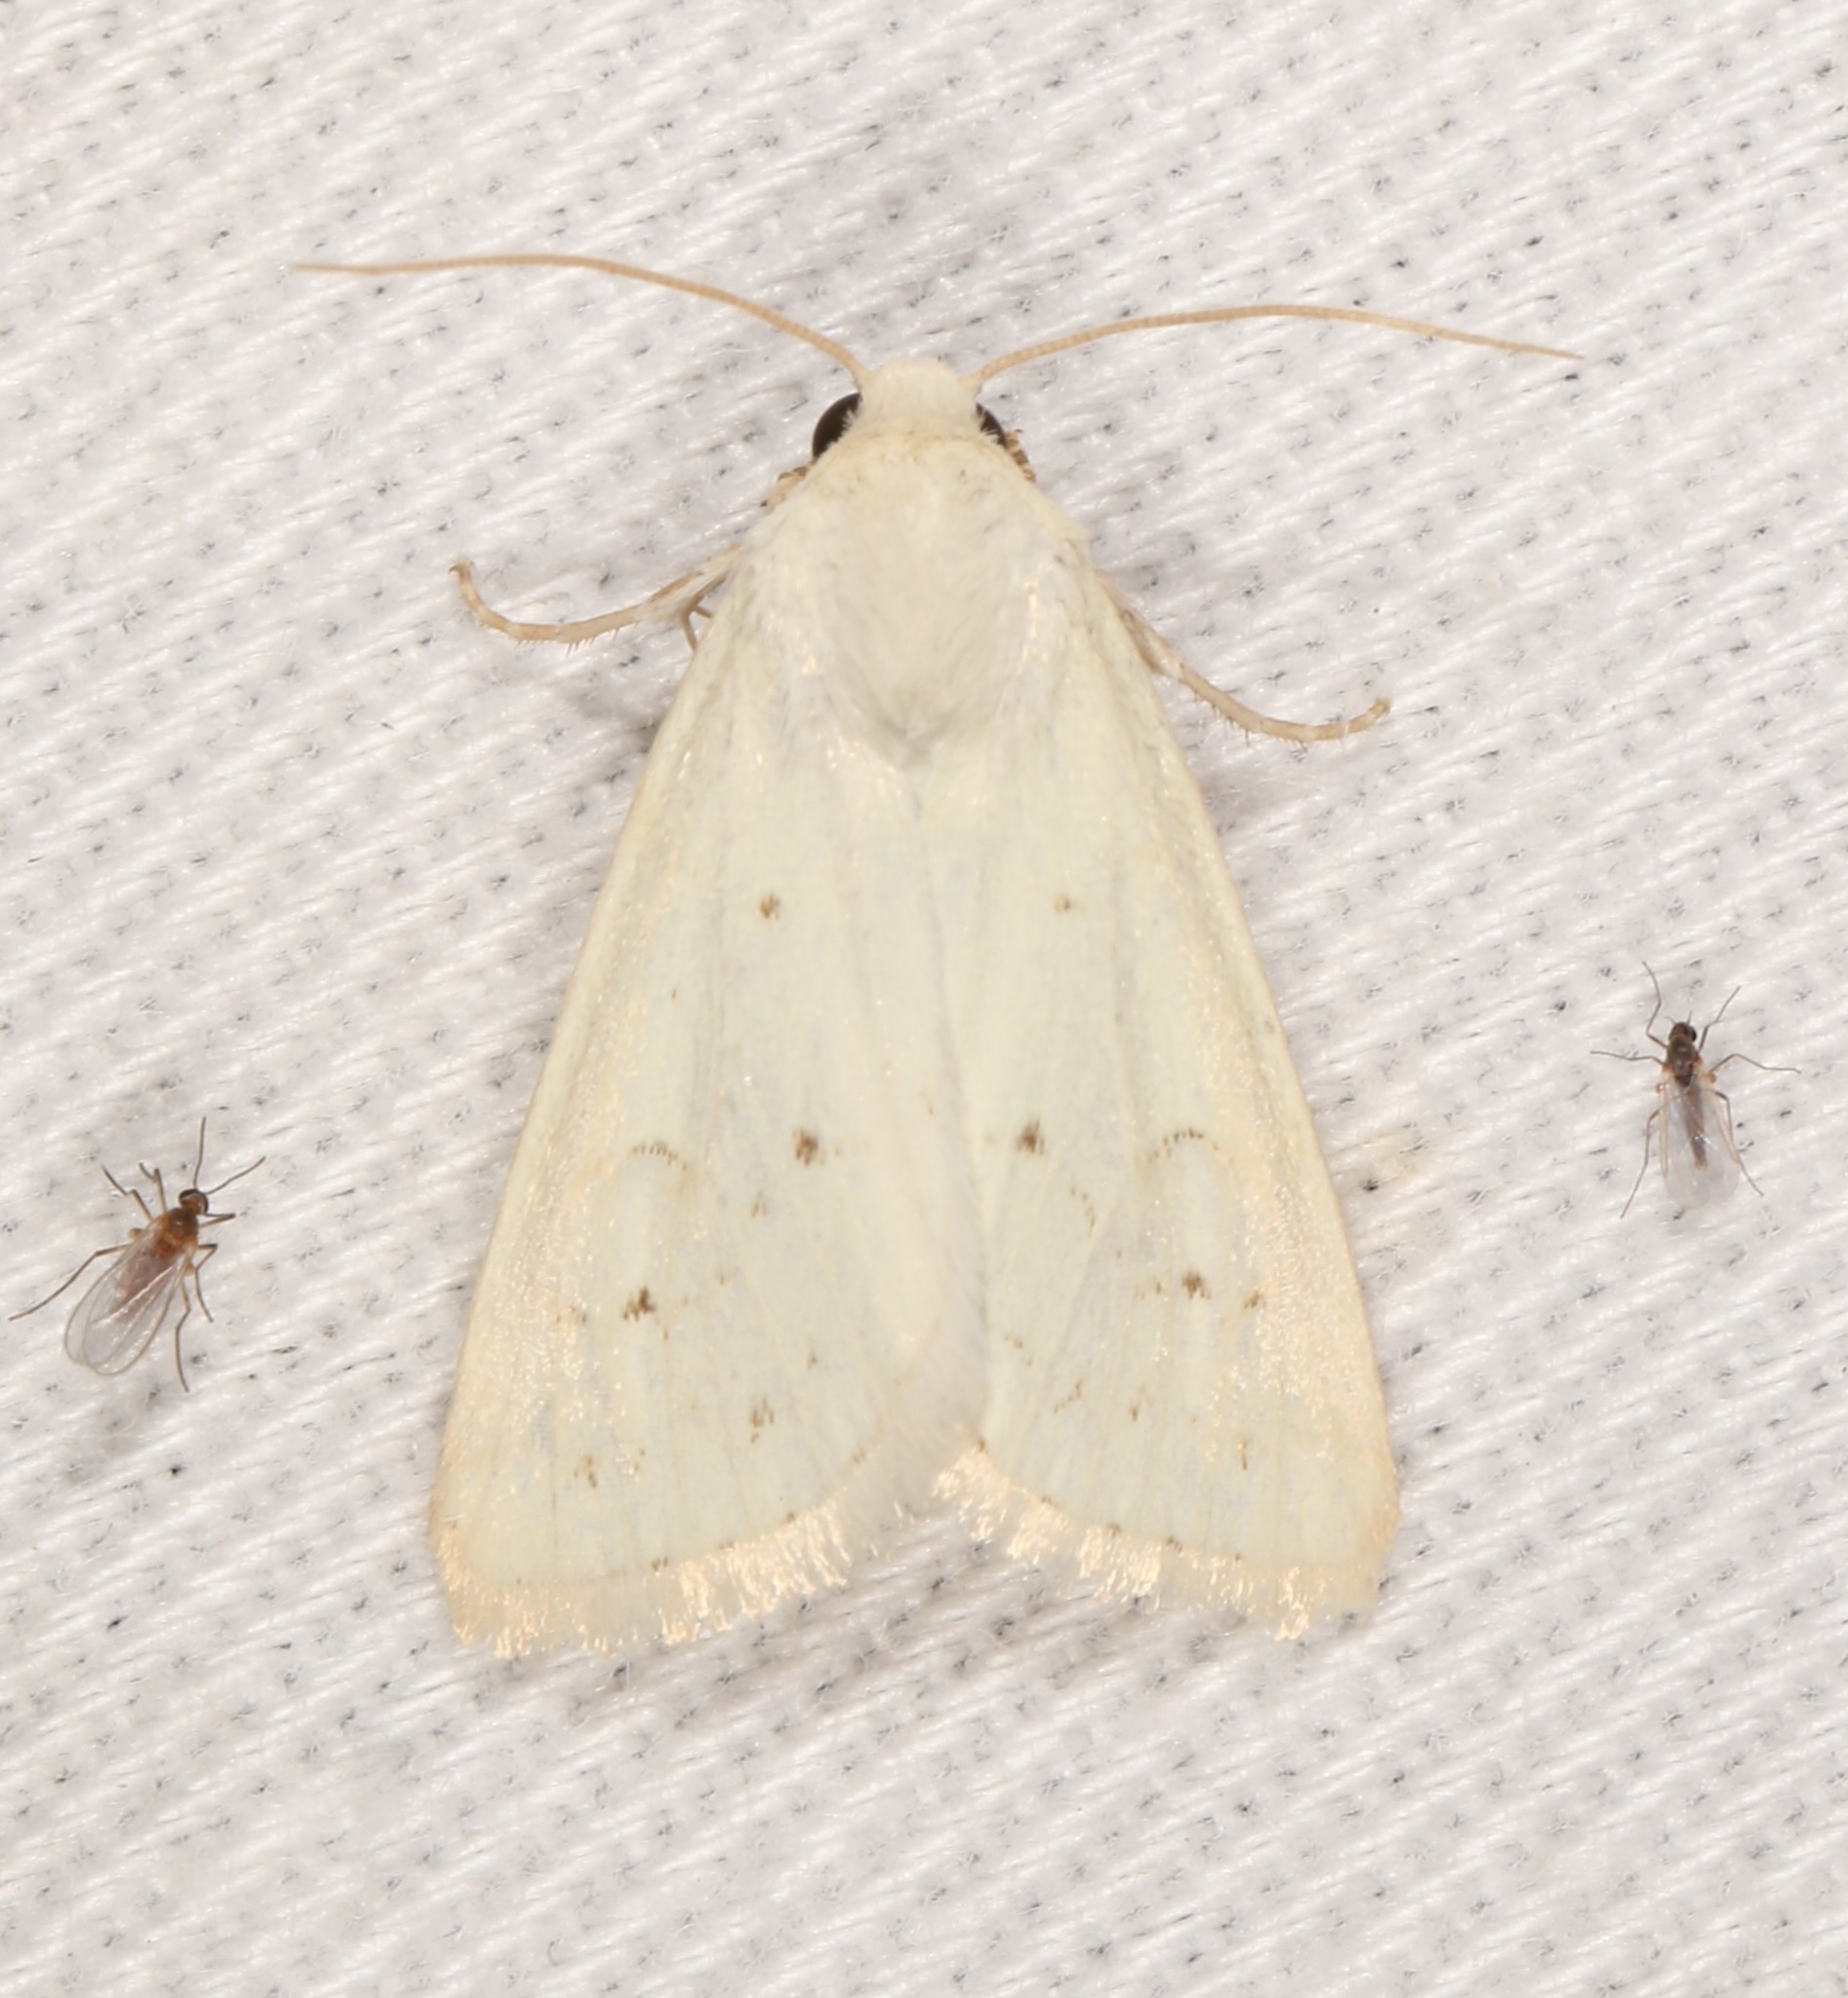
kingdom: Animalia
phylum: Arthropoda
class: Insecta
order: Lepidoptera
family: Noctuidae
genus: Schinia
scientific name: Schinia luxa
